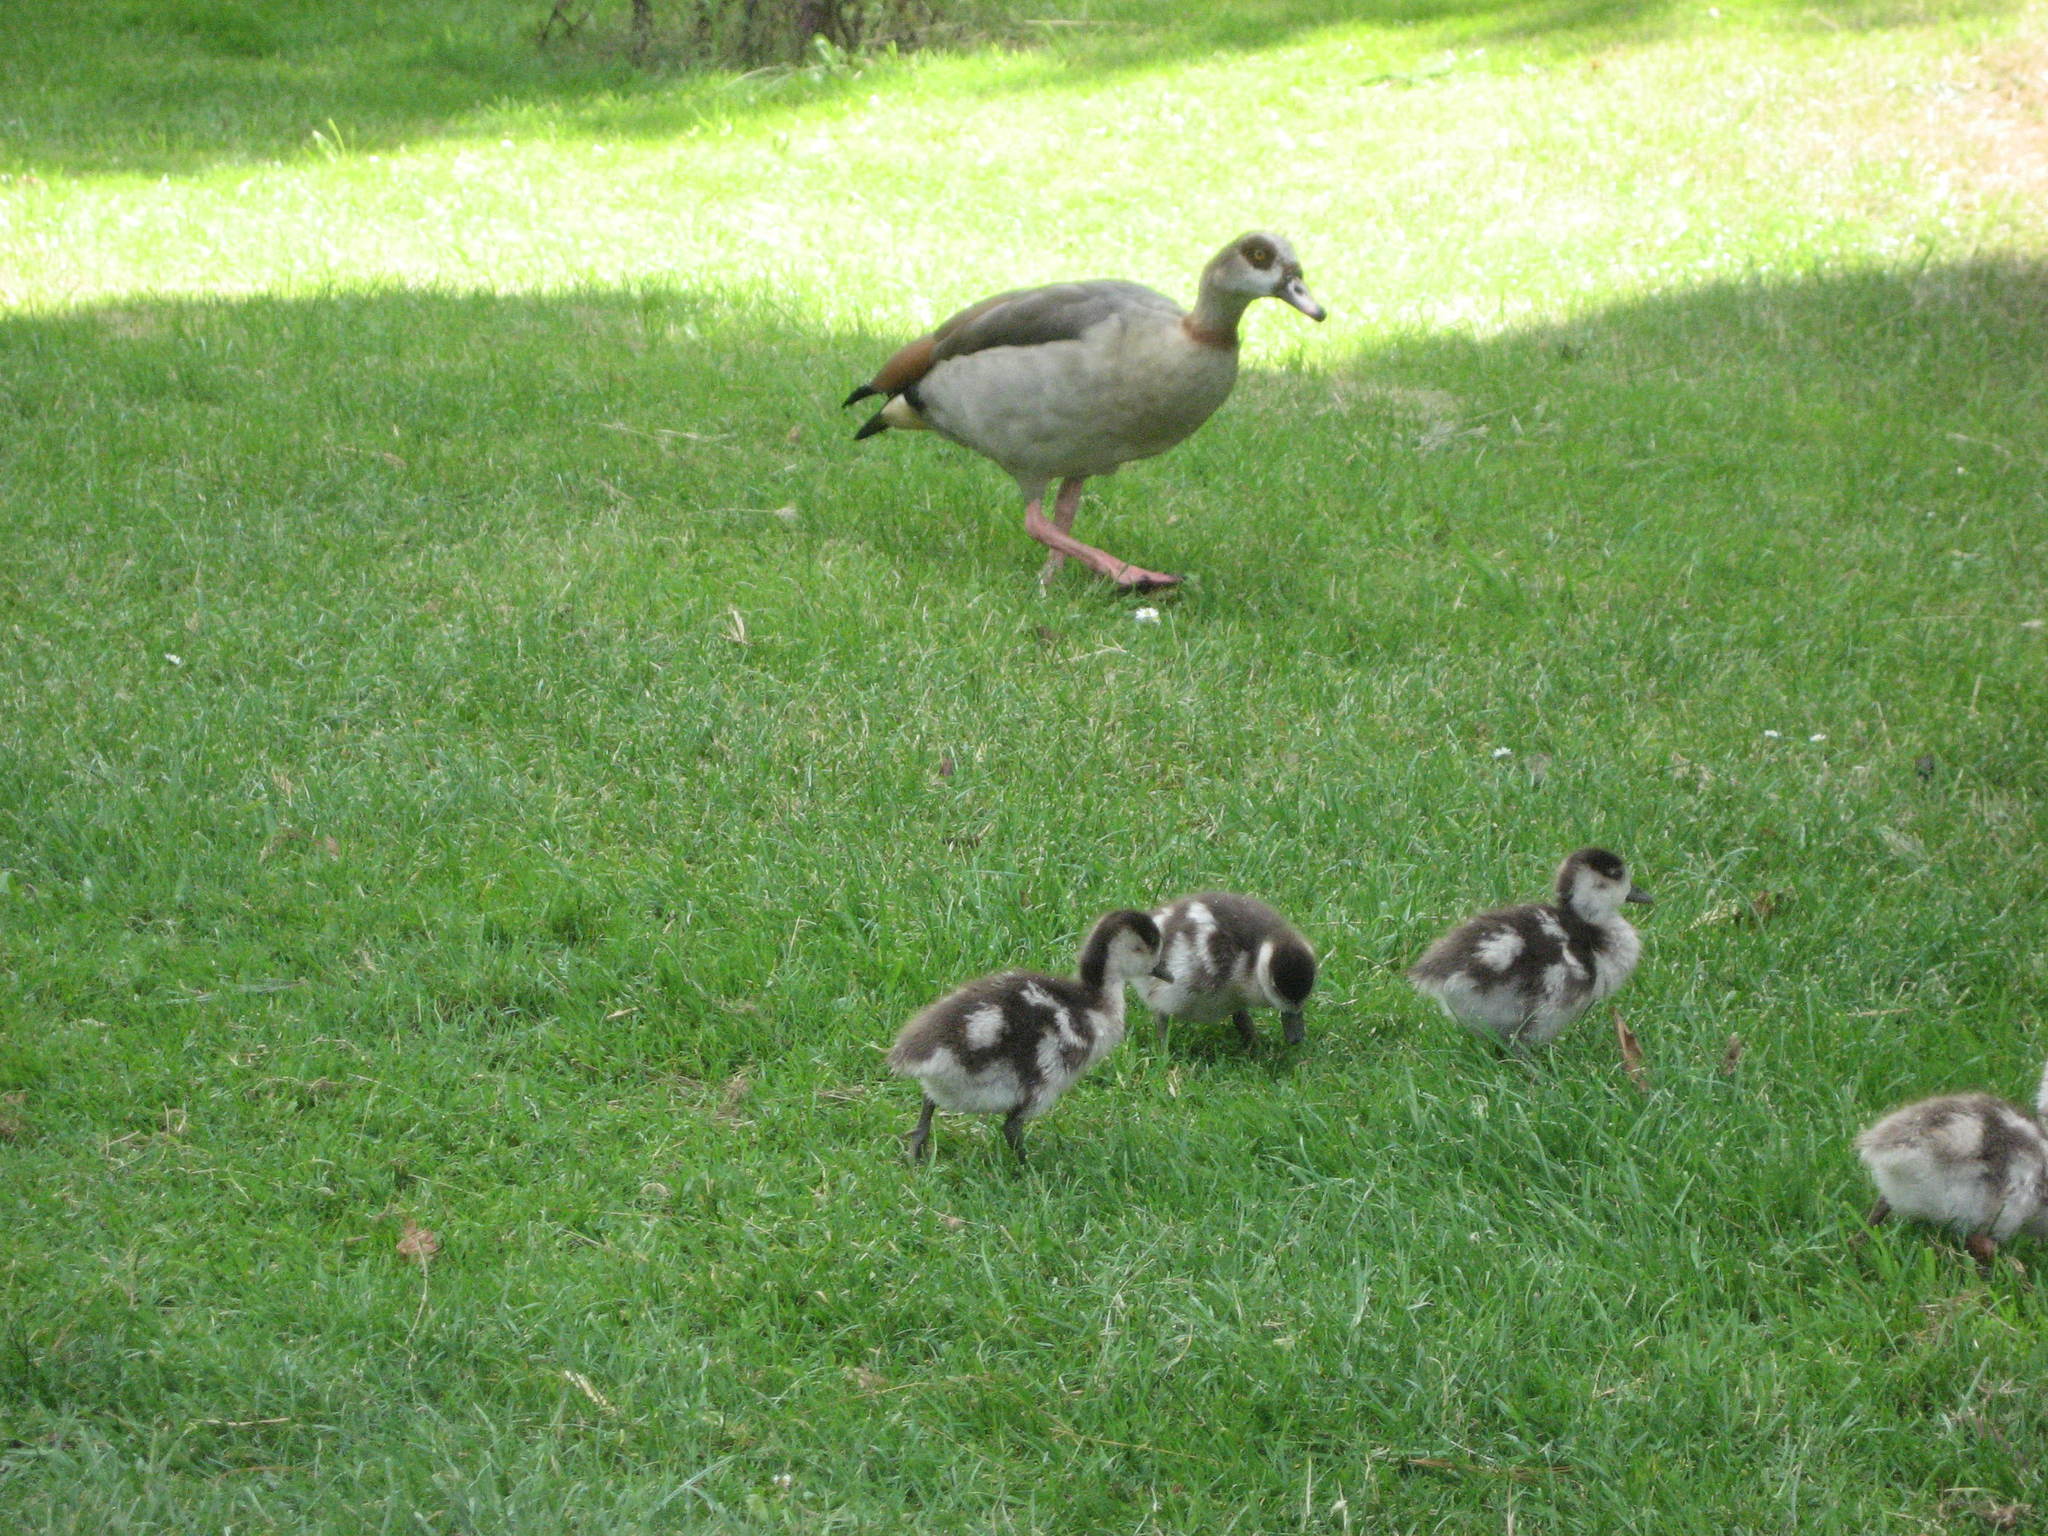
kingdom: Animalia
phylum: Chordata
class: Aves
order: Anseriformes
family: Anatidae
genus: Alopochen
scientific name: Alopochen aegyptiaca
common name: Egyptian goose
